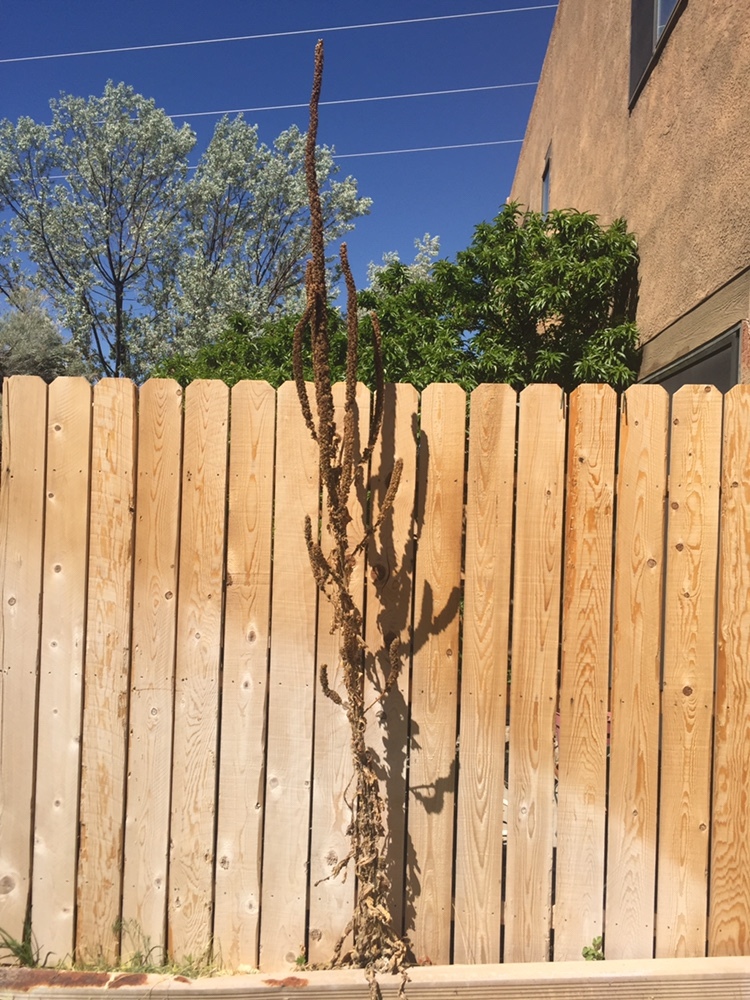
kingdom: Plantae
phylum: Tracheophyta
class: Magnoliopsida
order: Lamiales
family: Scrophulariaceae
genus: Verbascum
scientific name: Verbascum thapsus
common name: Common mullein
